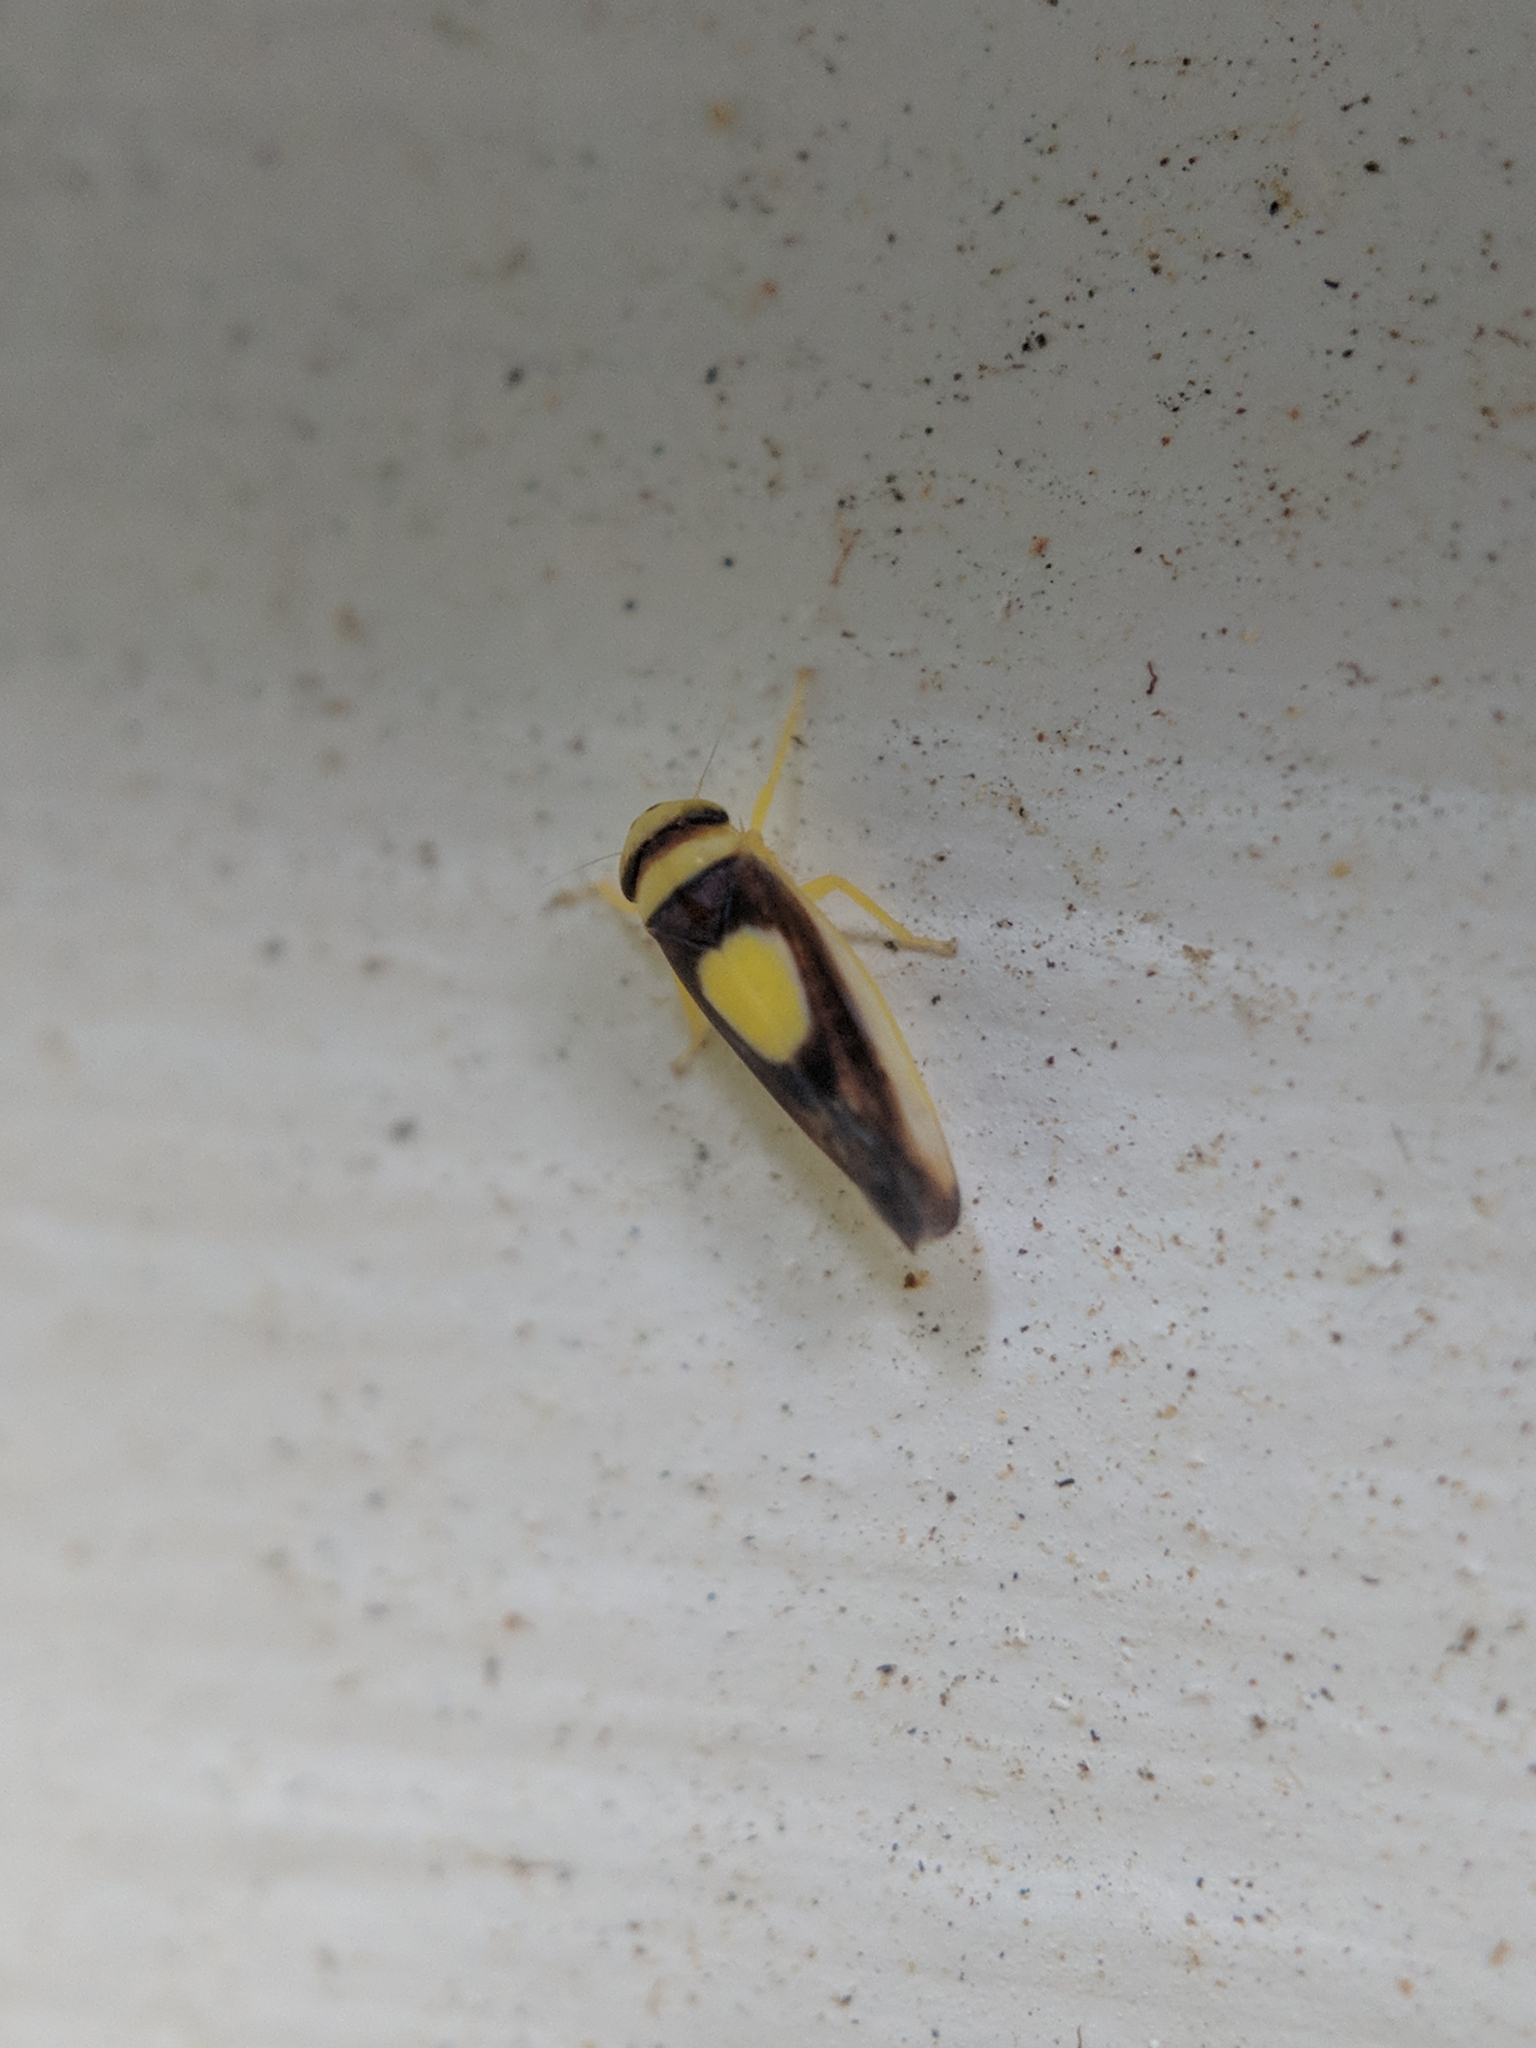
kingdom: Animalia
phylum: Arthropoda
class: Insecta
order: Hemiptera
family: Cicadellidae
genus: Colladonus
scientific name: Colladonus clitellarius
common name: The saddleback leafhopper
